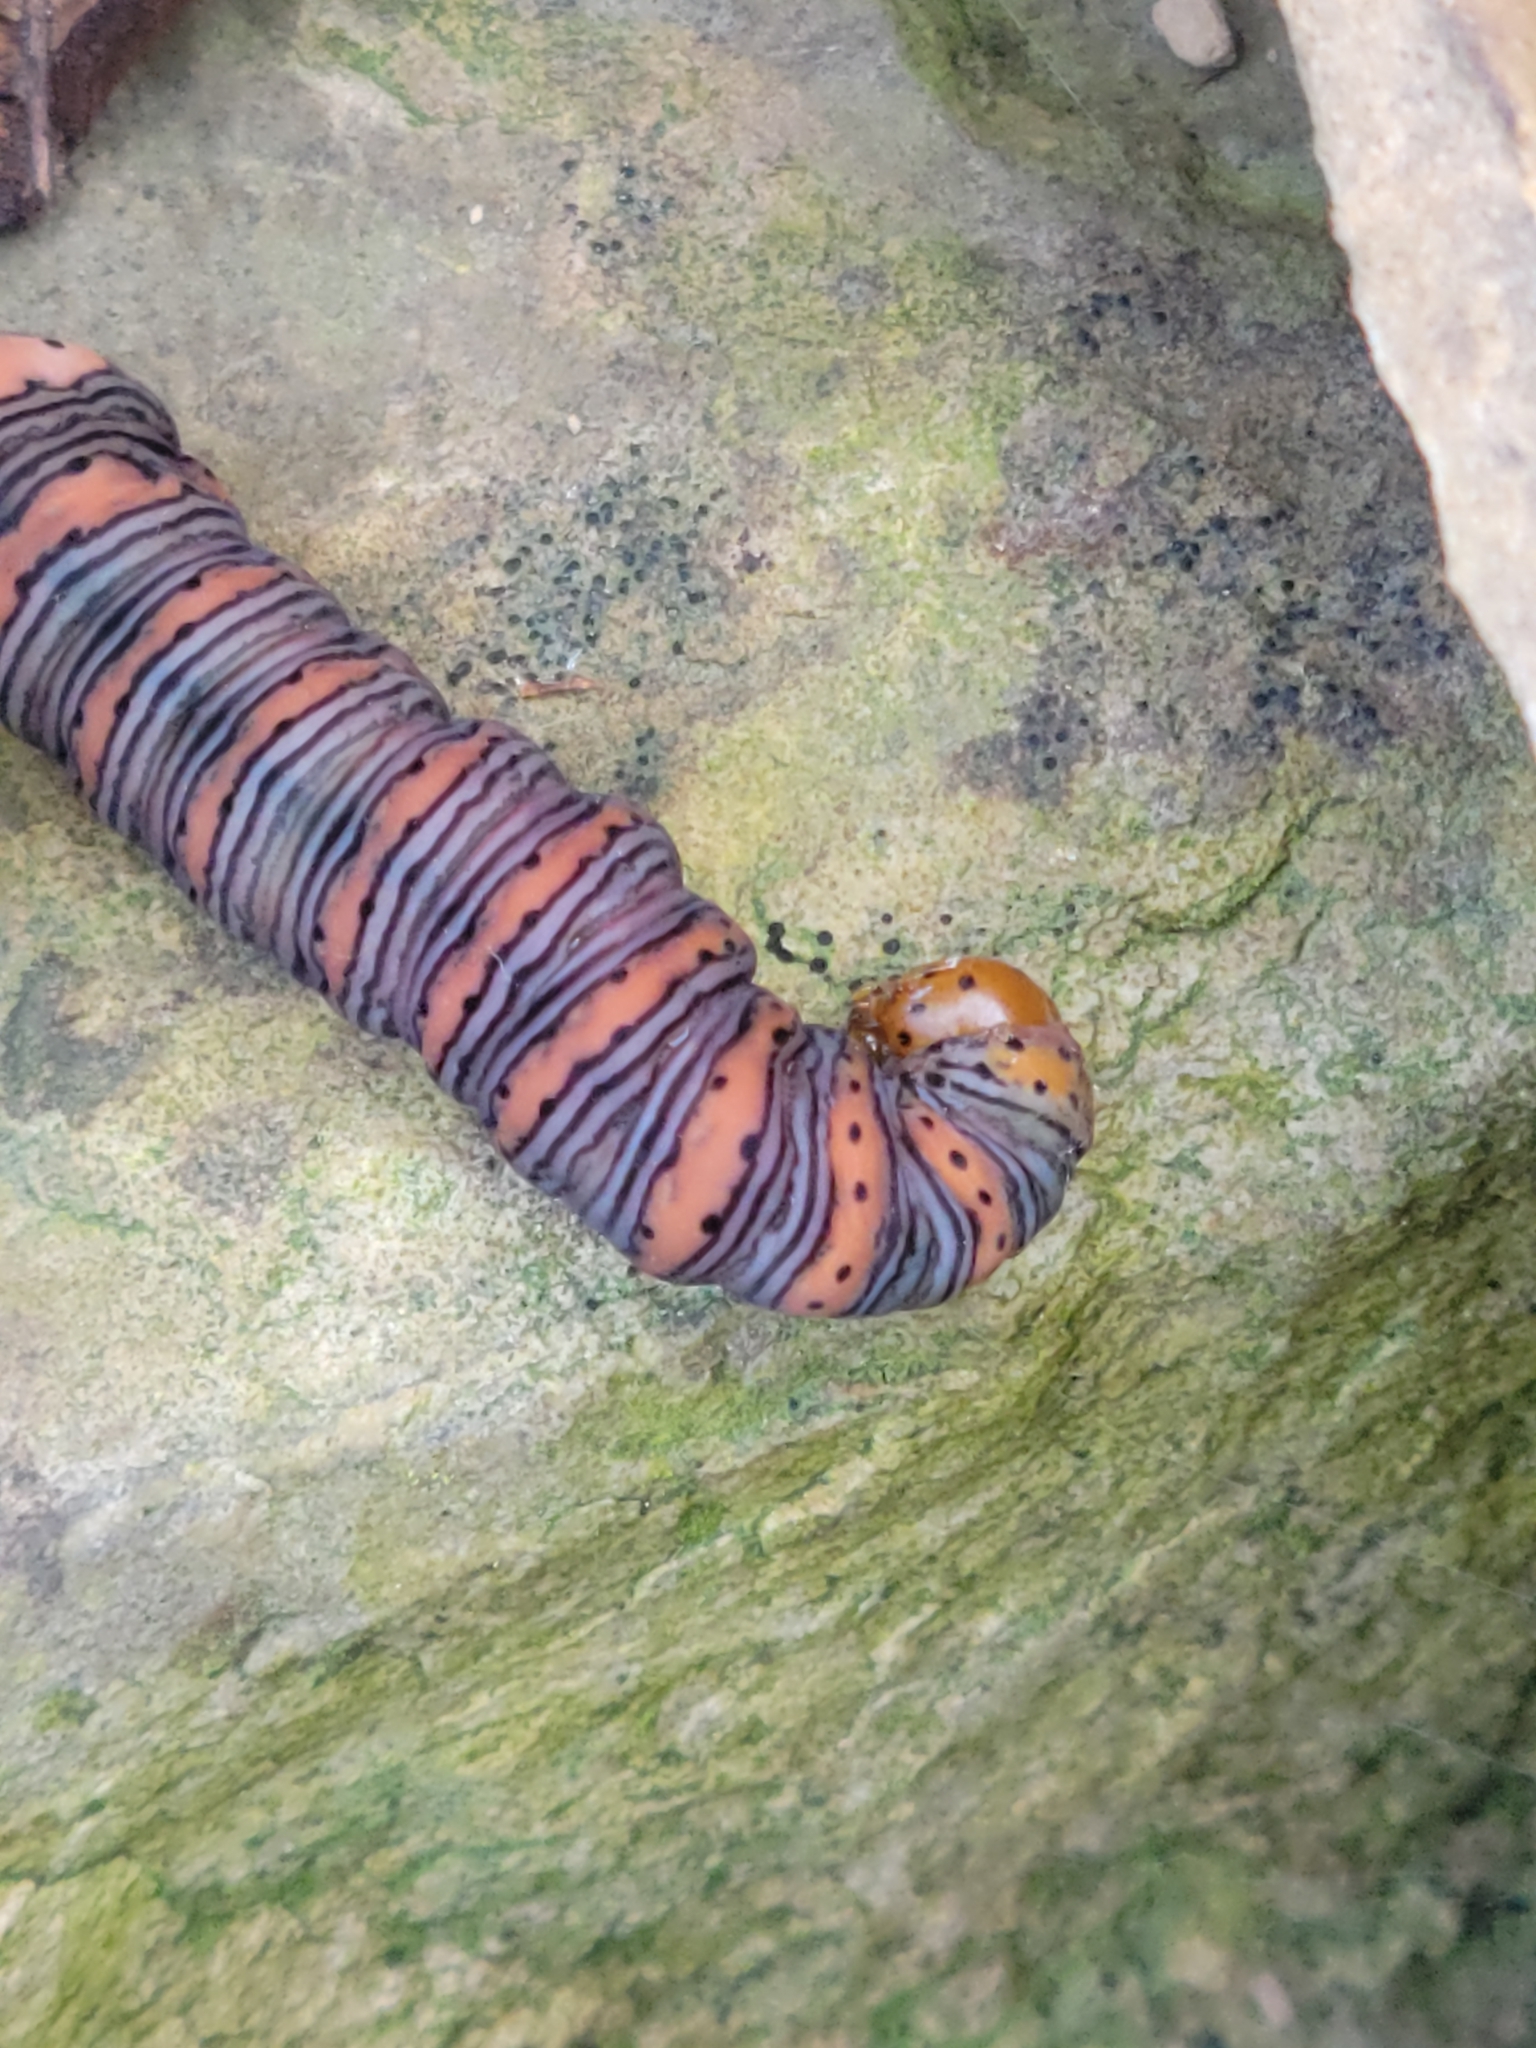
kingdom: Animalia
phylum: Arthropoda
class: Insecta
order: Lepidoptera
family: Noctuidae
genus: Eudryas
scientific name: Eudryas grata
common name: Beautiful wood-nymph
